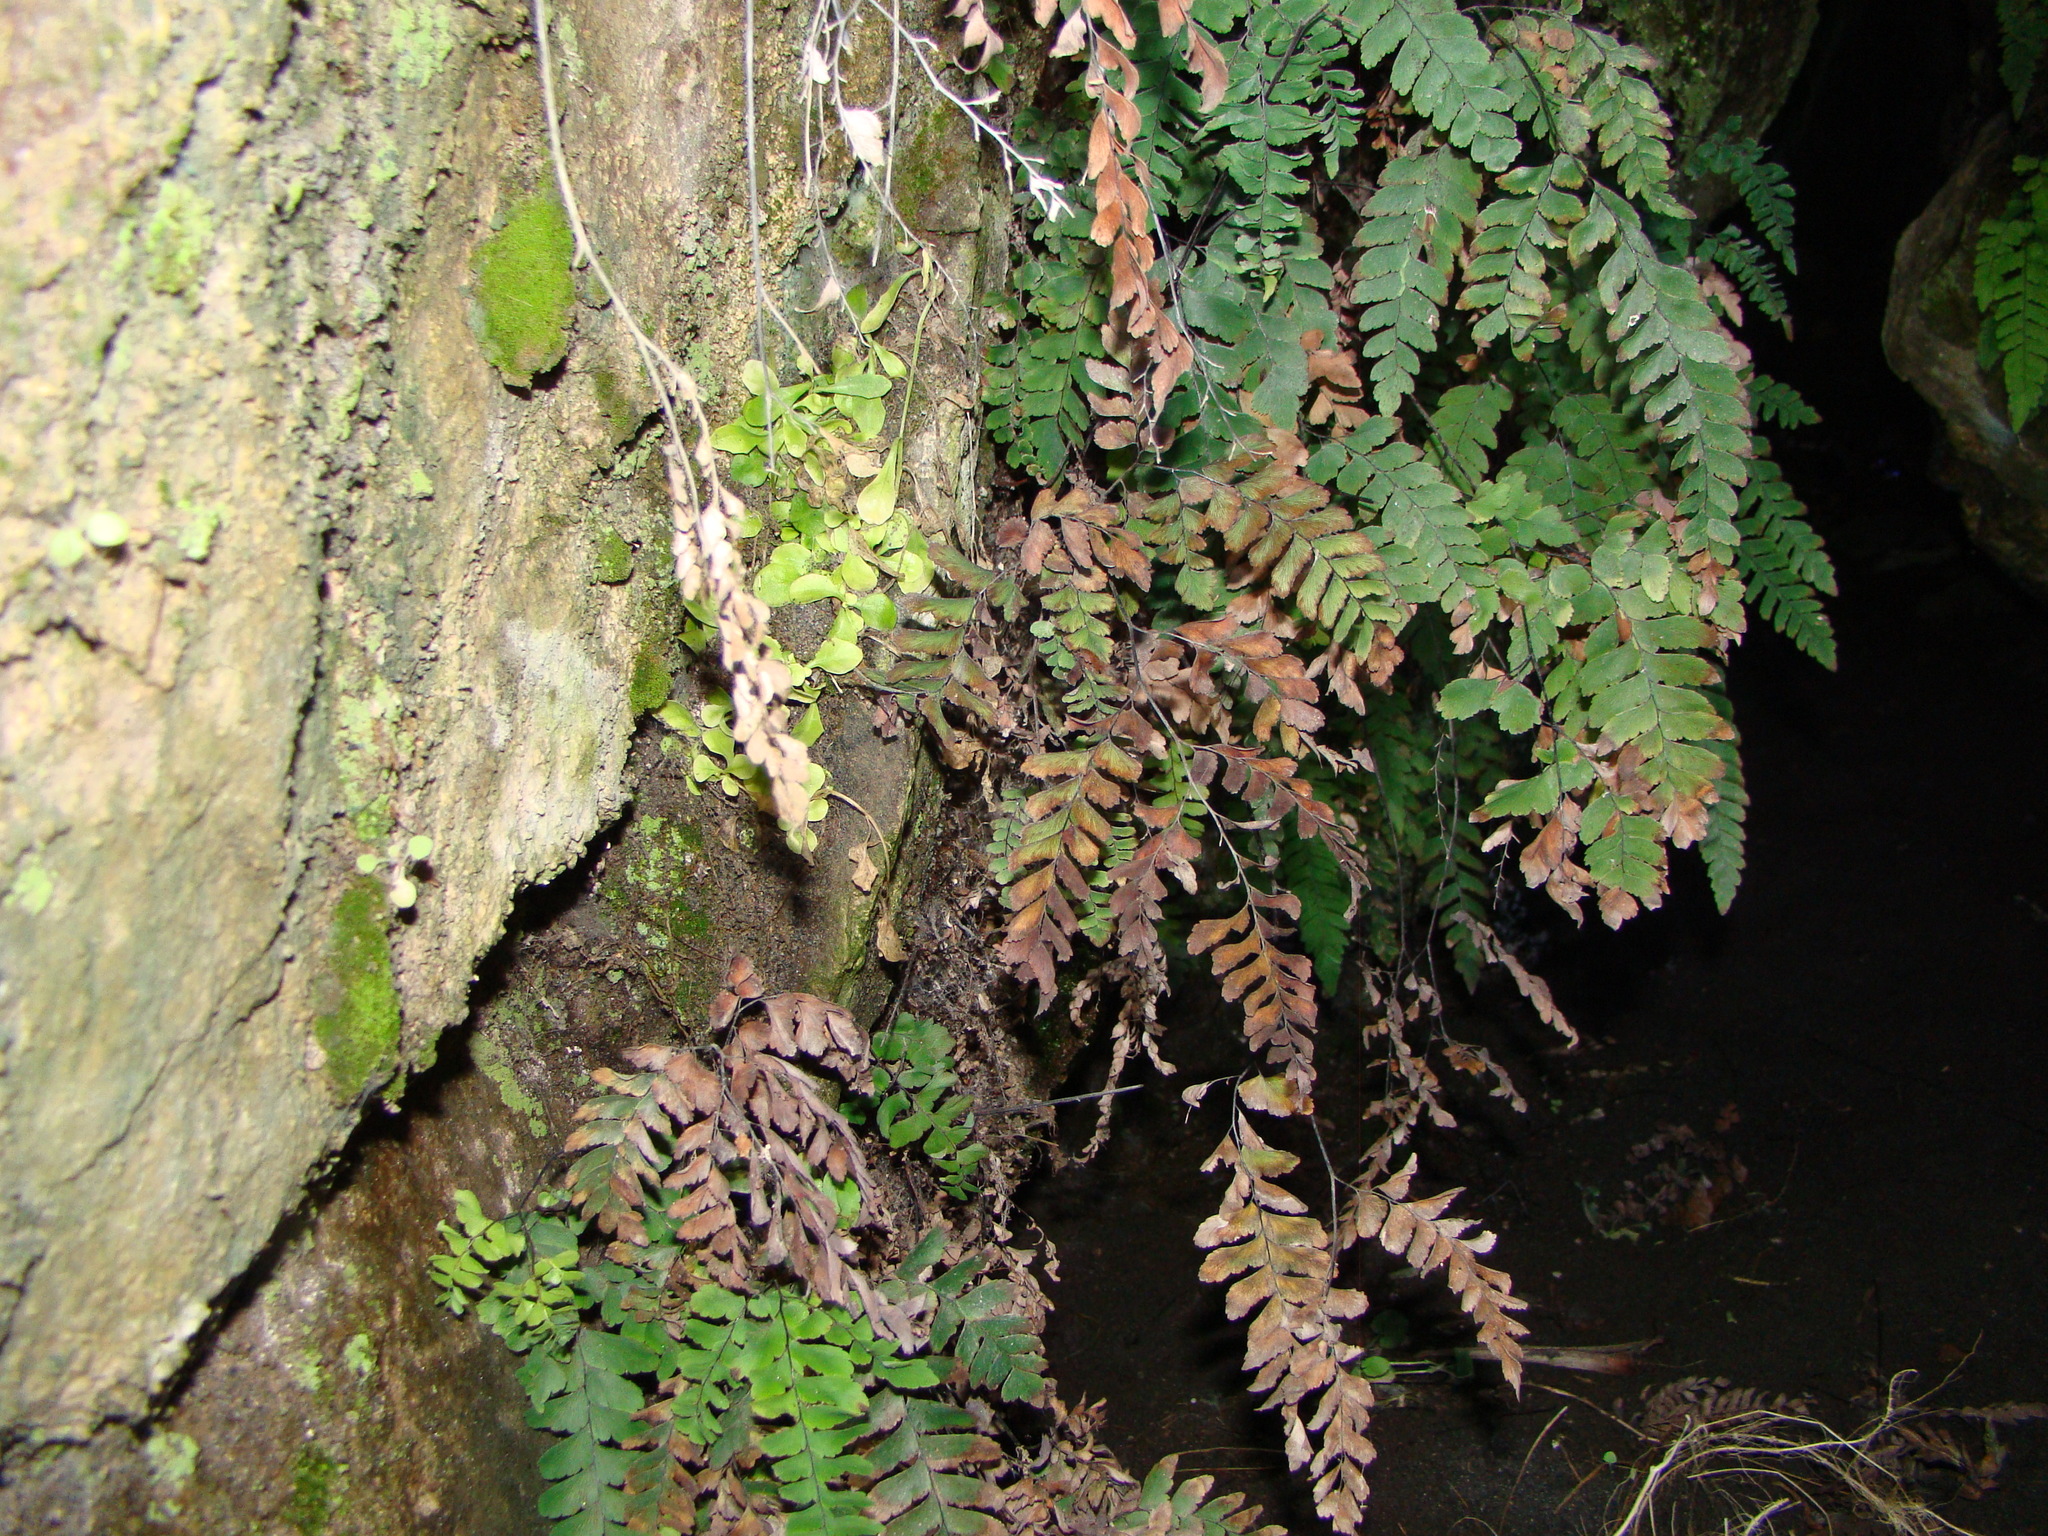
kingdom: Plantae
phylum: Tracheophyta
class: Polypodiopsida
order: Polypodiales
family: Pteridaceae
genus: Adiantum
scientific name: Adiantum cunninghamii
